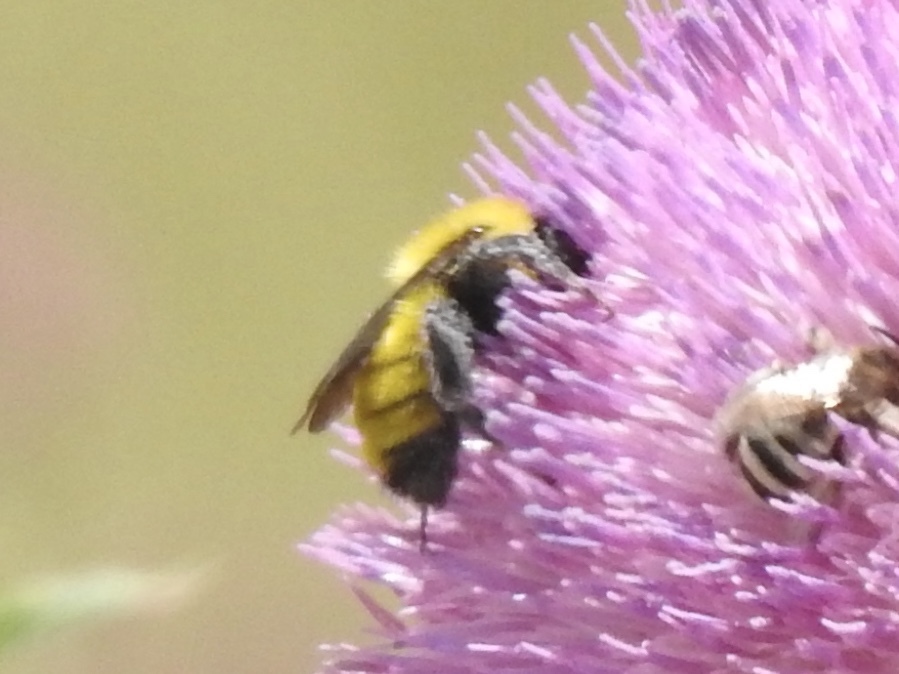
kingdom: Animalia
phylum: Arthropoda
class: Insecta
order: Hymenoptera
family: Apidae
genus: Bombus
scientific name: Bombus fervidus
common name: Yellow bumble bee
